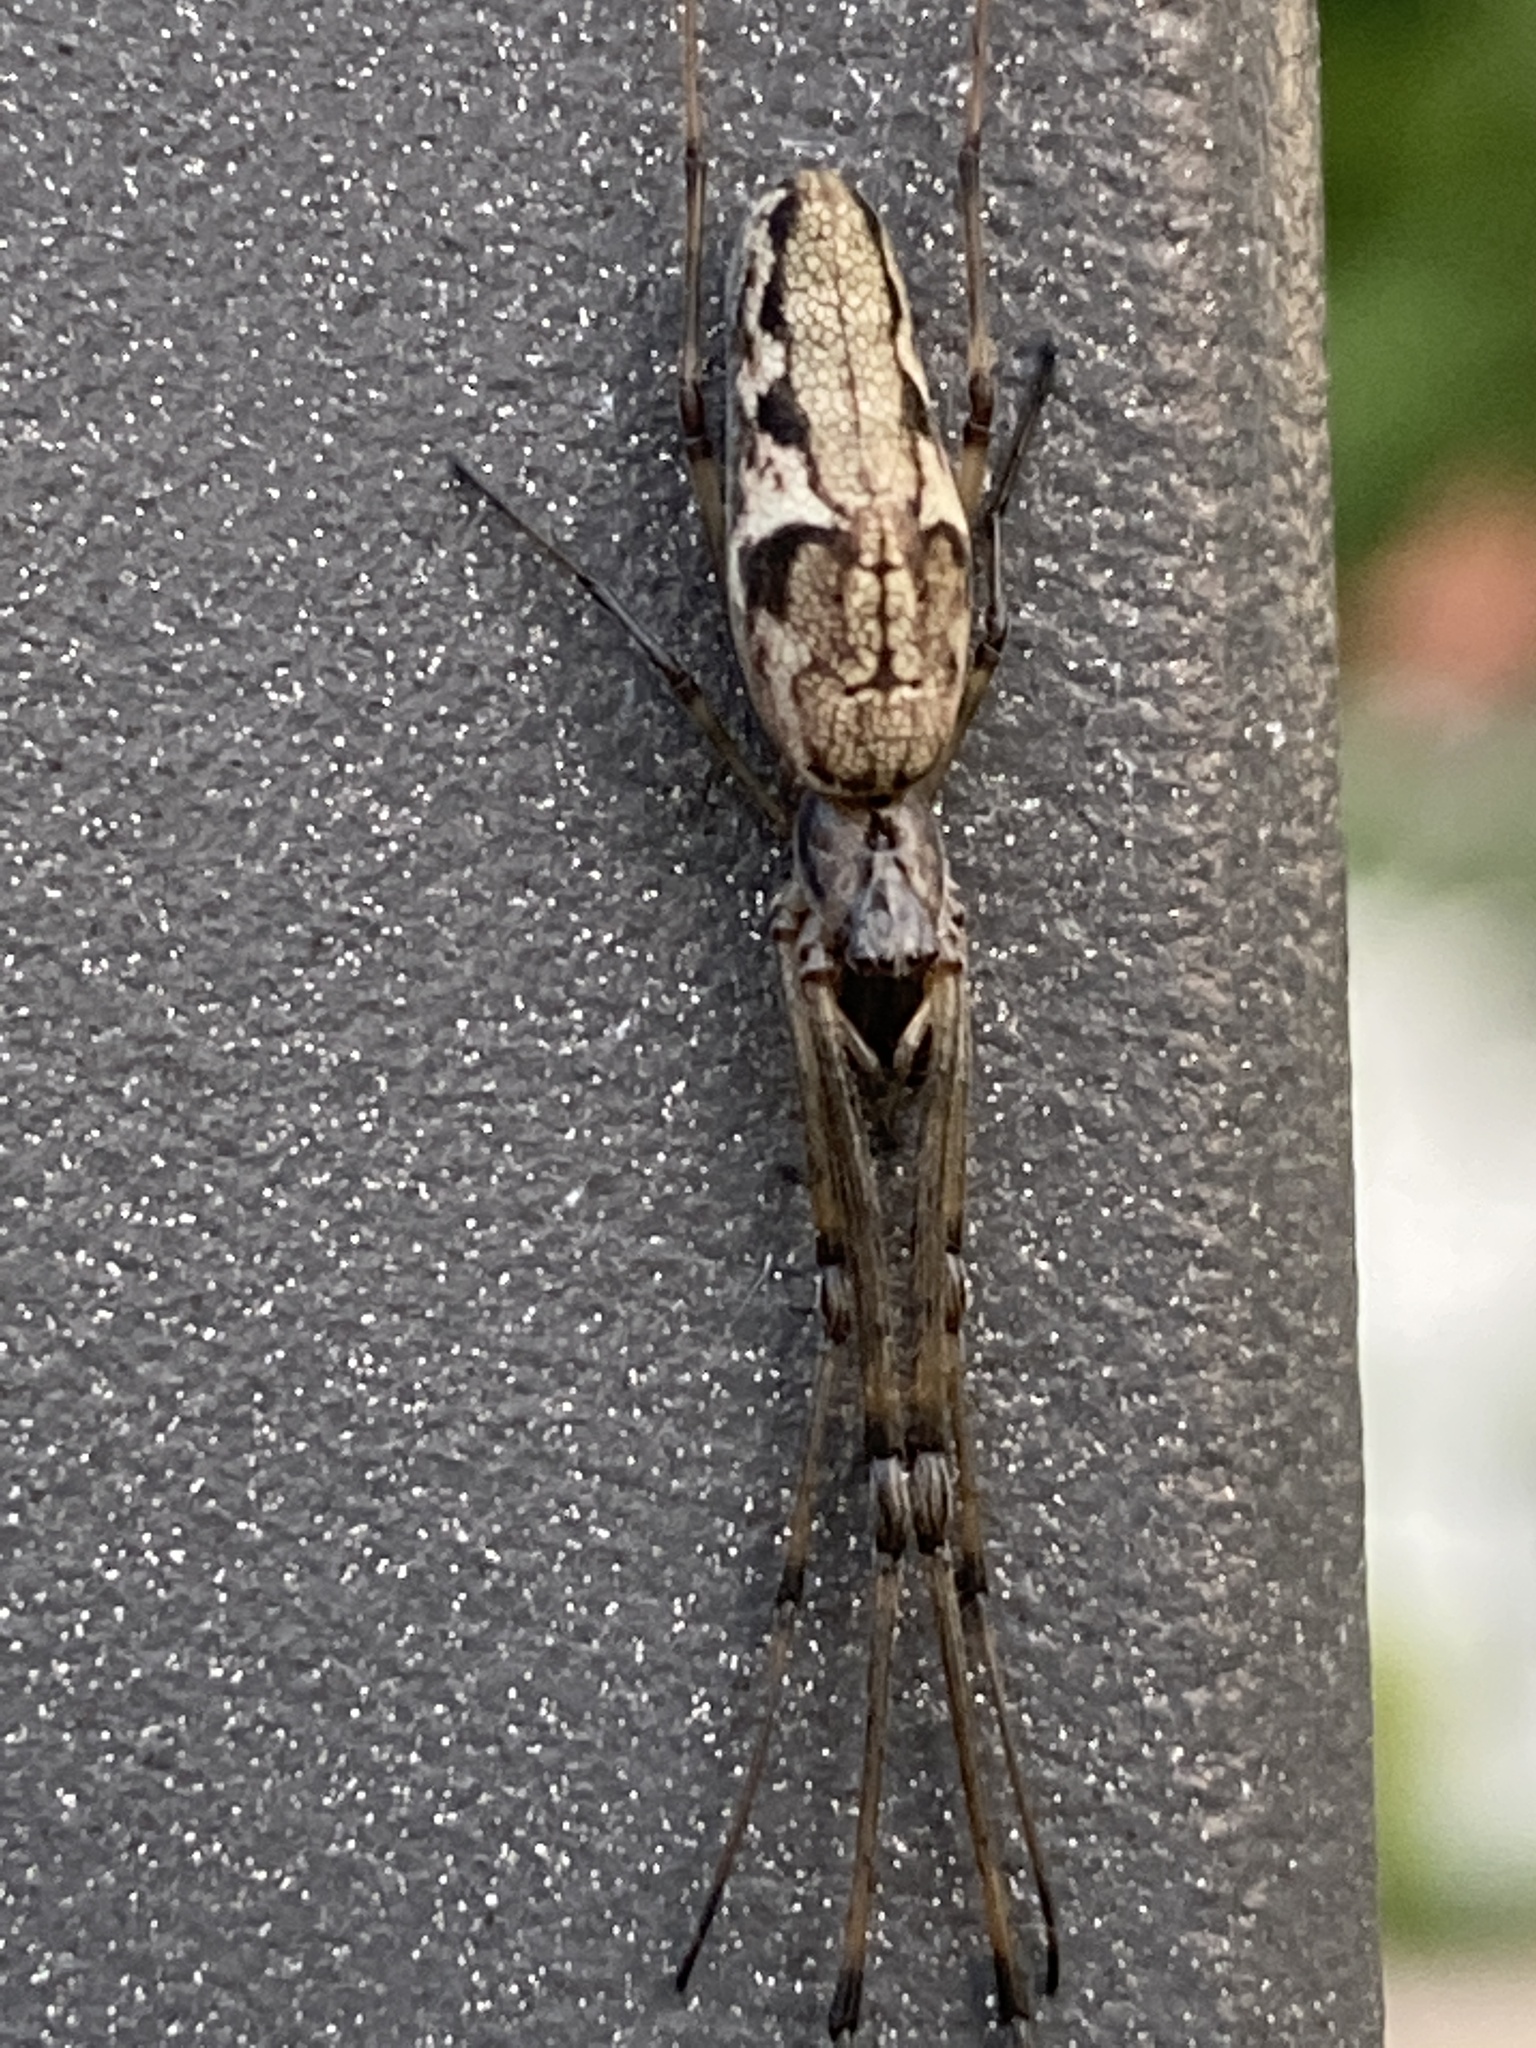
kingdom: Animalia
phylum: Arthropoda
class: Arachnida
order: Araneae
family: Tetragnathidae
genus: Tetragnatha
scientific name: Tetragnatha nigrita
